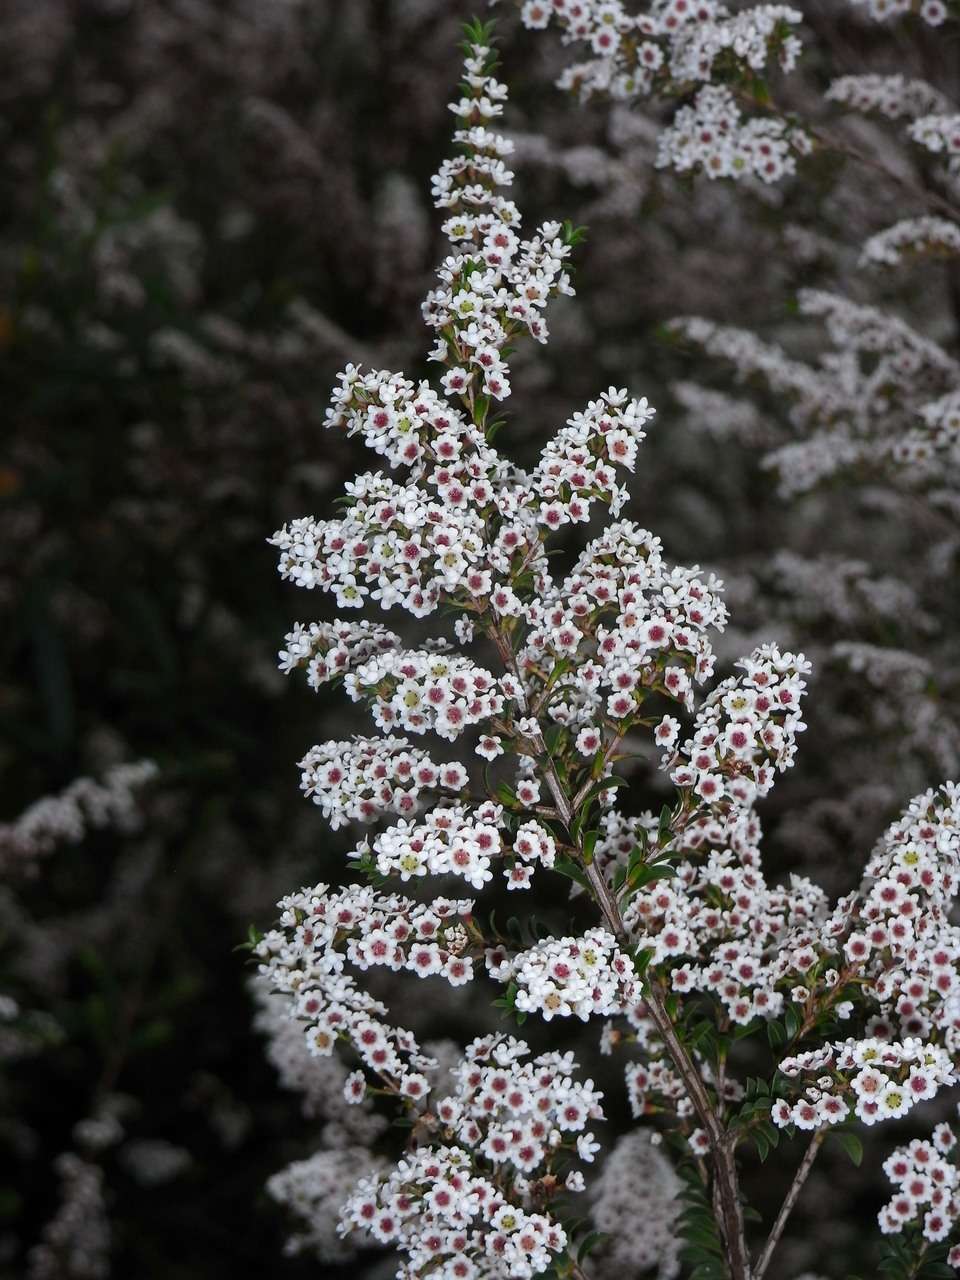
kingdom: Plantae
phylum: Tracheophyta
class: Magnoliopsida
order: Myrtales
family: Myrtaceae
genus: Thryptomene
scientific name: Thryptomene calycina
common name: Grampians thryptomene
